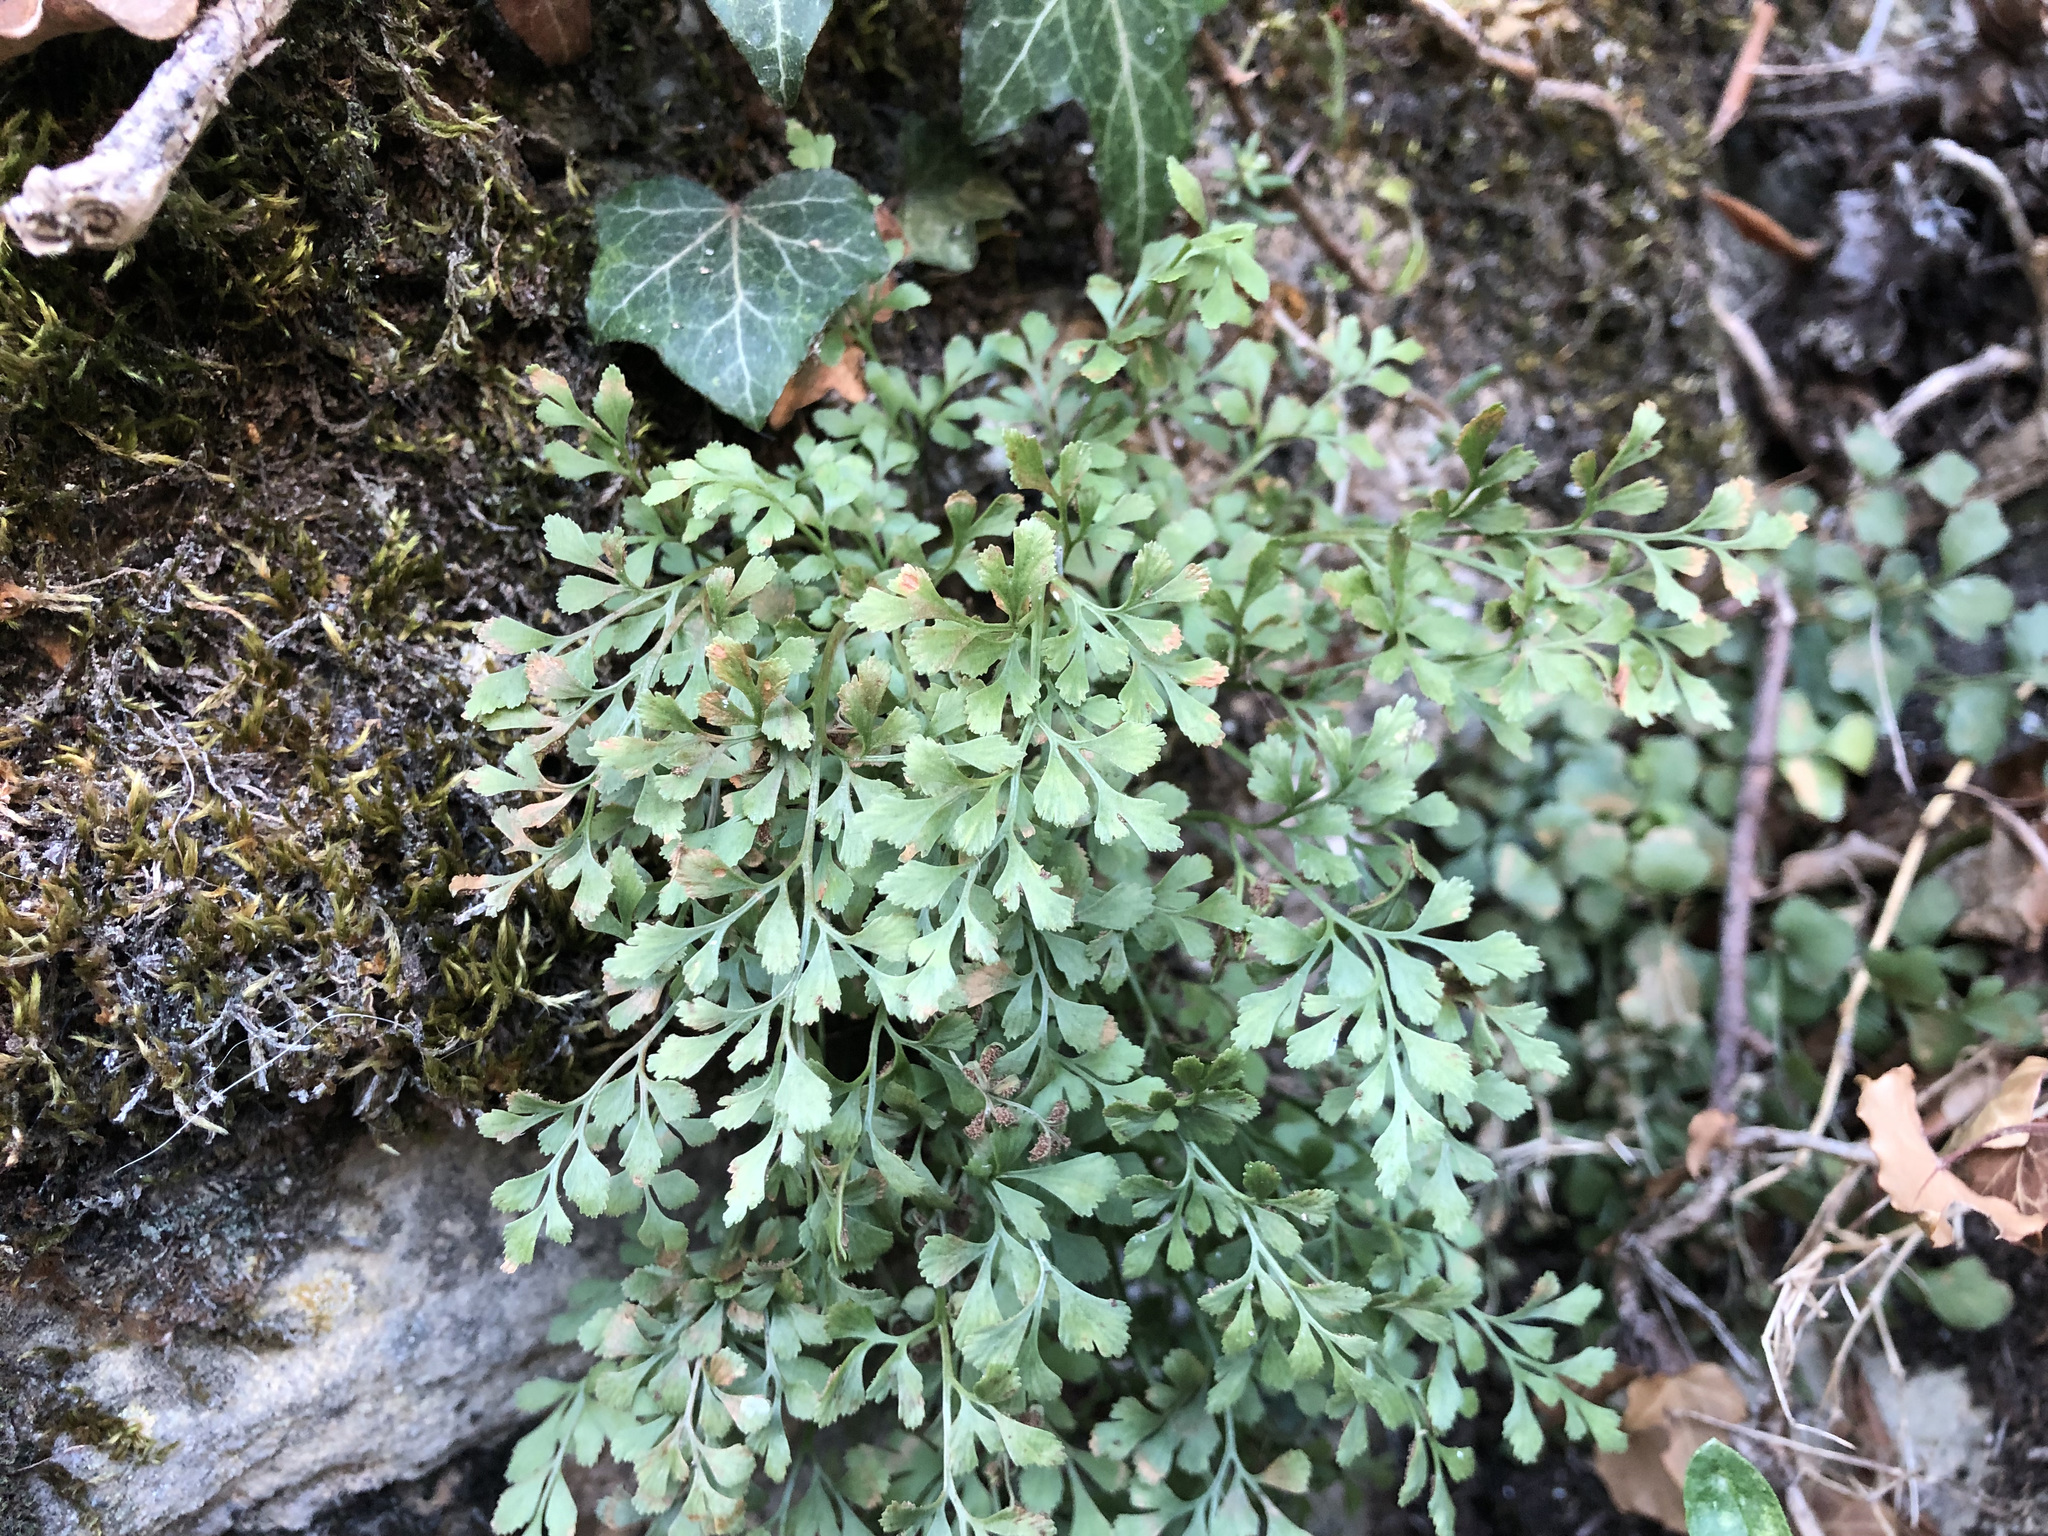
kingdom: Plantae
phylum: Tracheophyta
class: Polypodiopsida
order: Polypodiales
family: Aspleniaceae
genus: Asplenium
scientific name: Asplenium ruta-muraria
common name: Wall-rue
